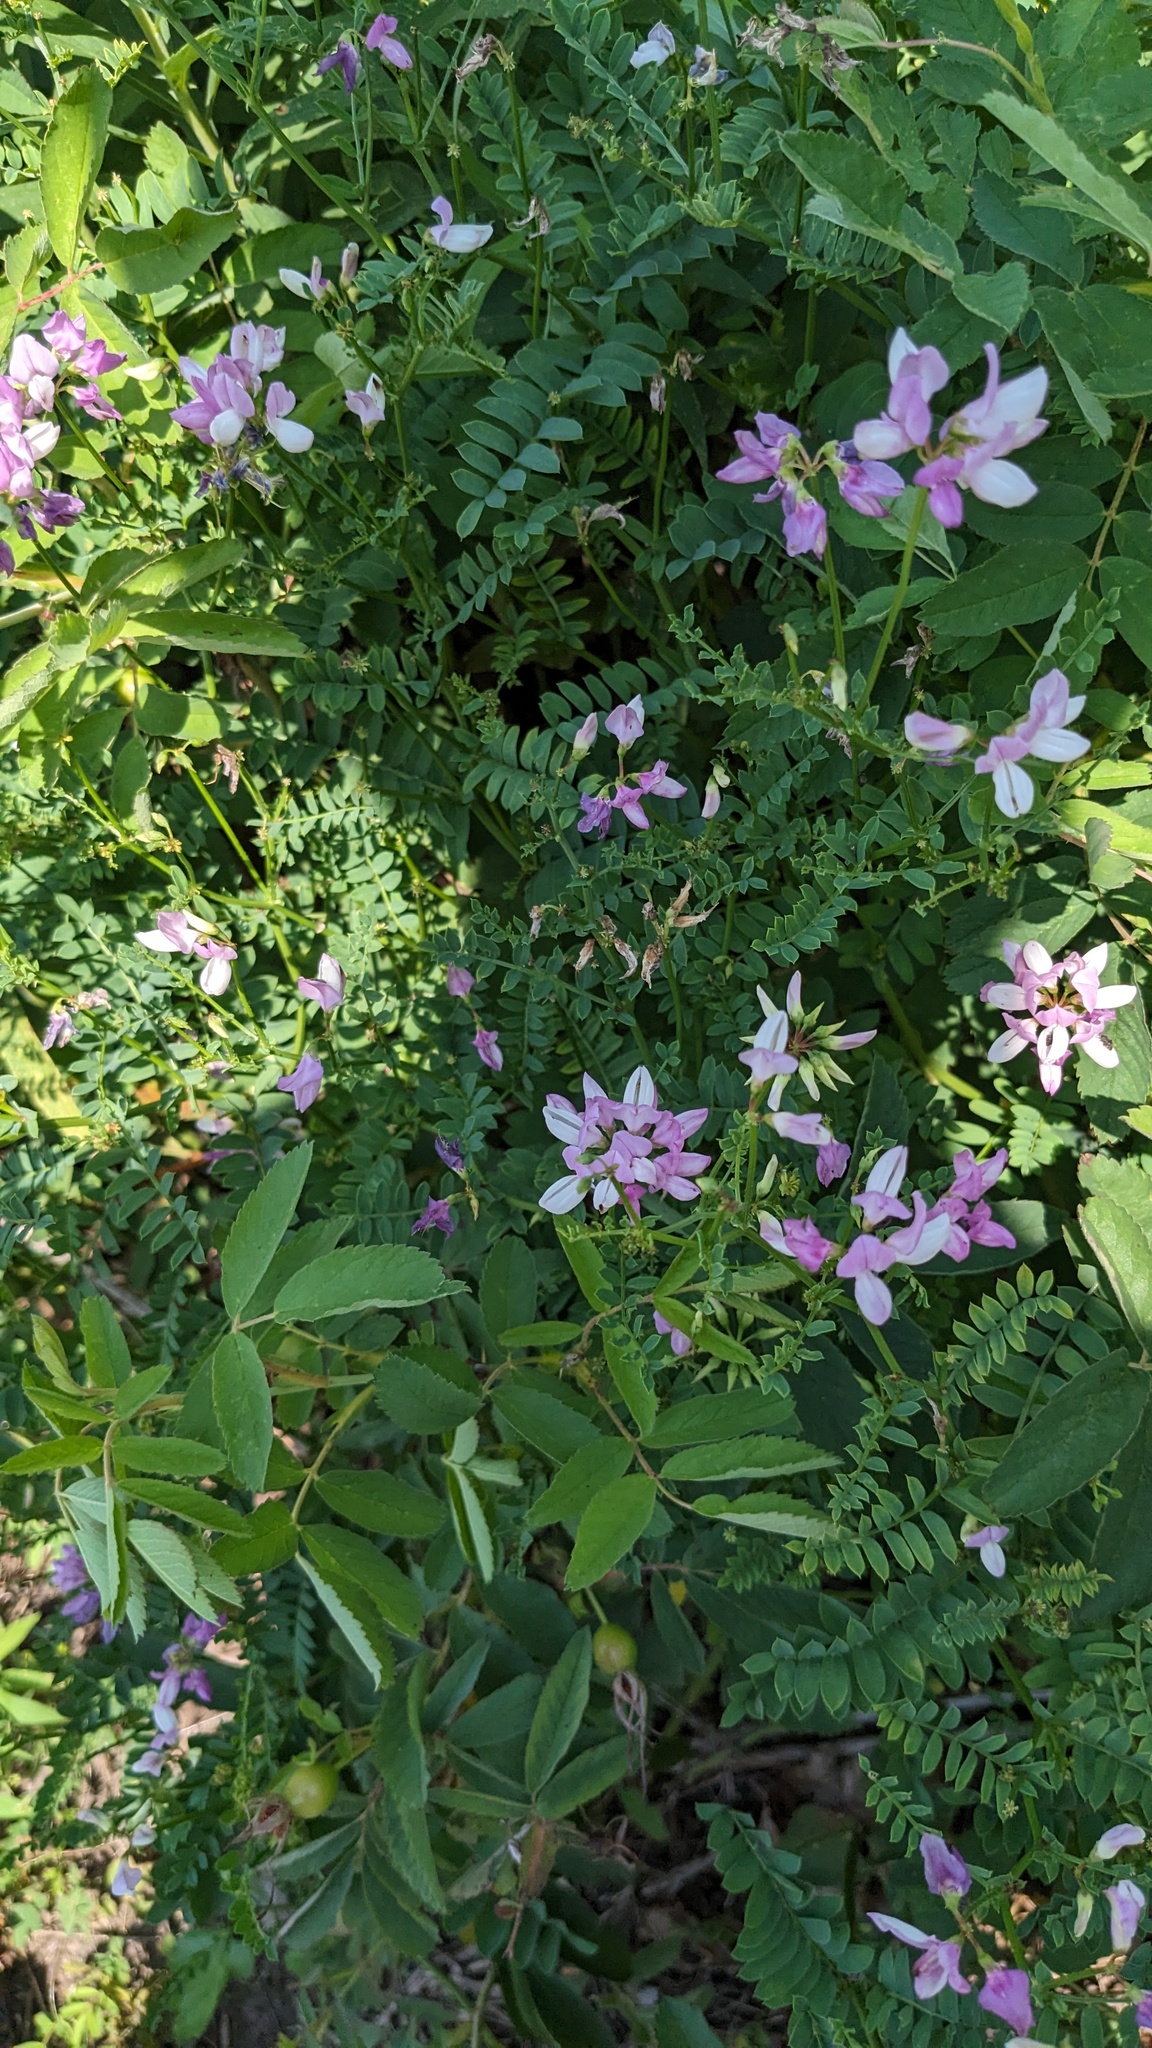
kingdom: Plantae
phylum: Tracheophyta
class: Magnoliopsida
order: Fabales
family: Fabaceae
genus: Coronilla
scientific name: Coronilla varia
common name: Crownvetch
